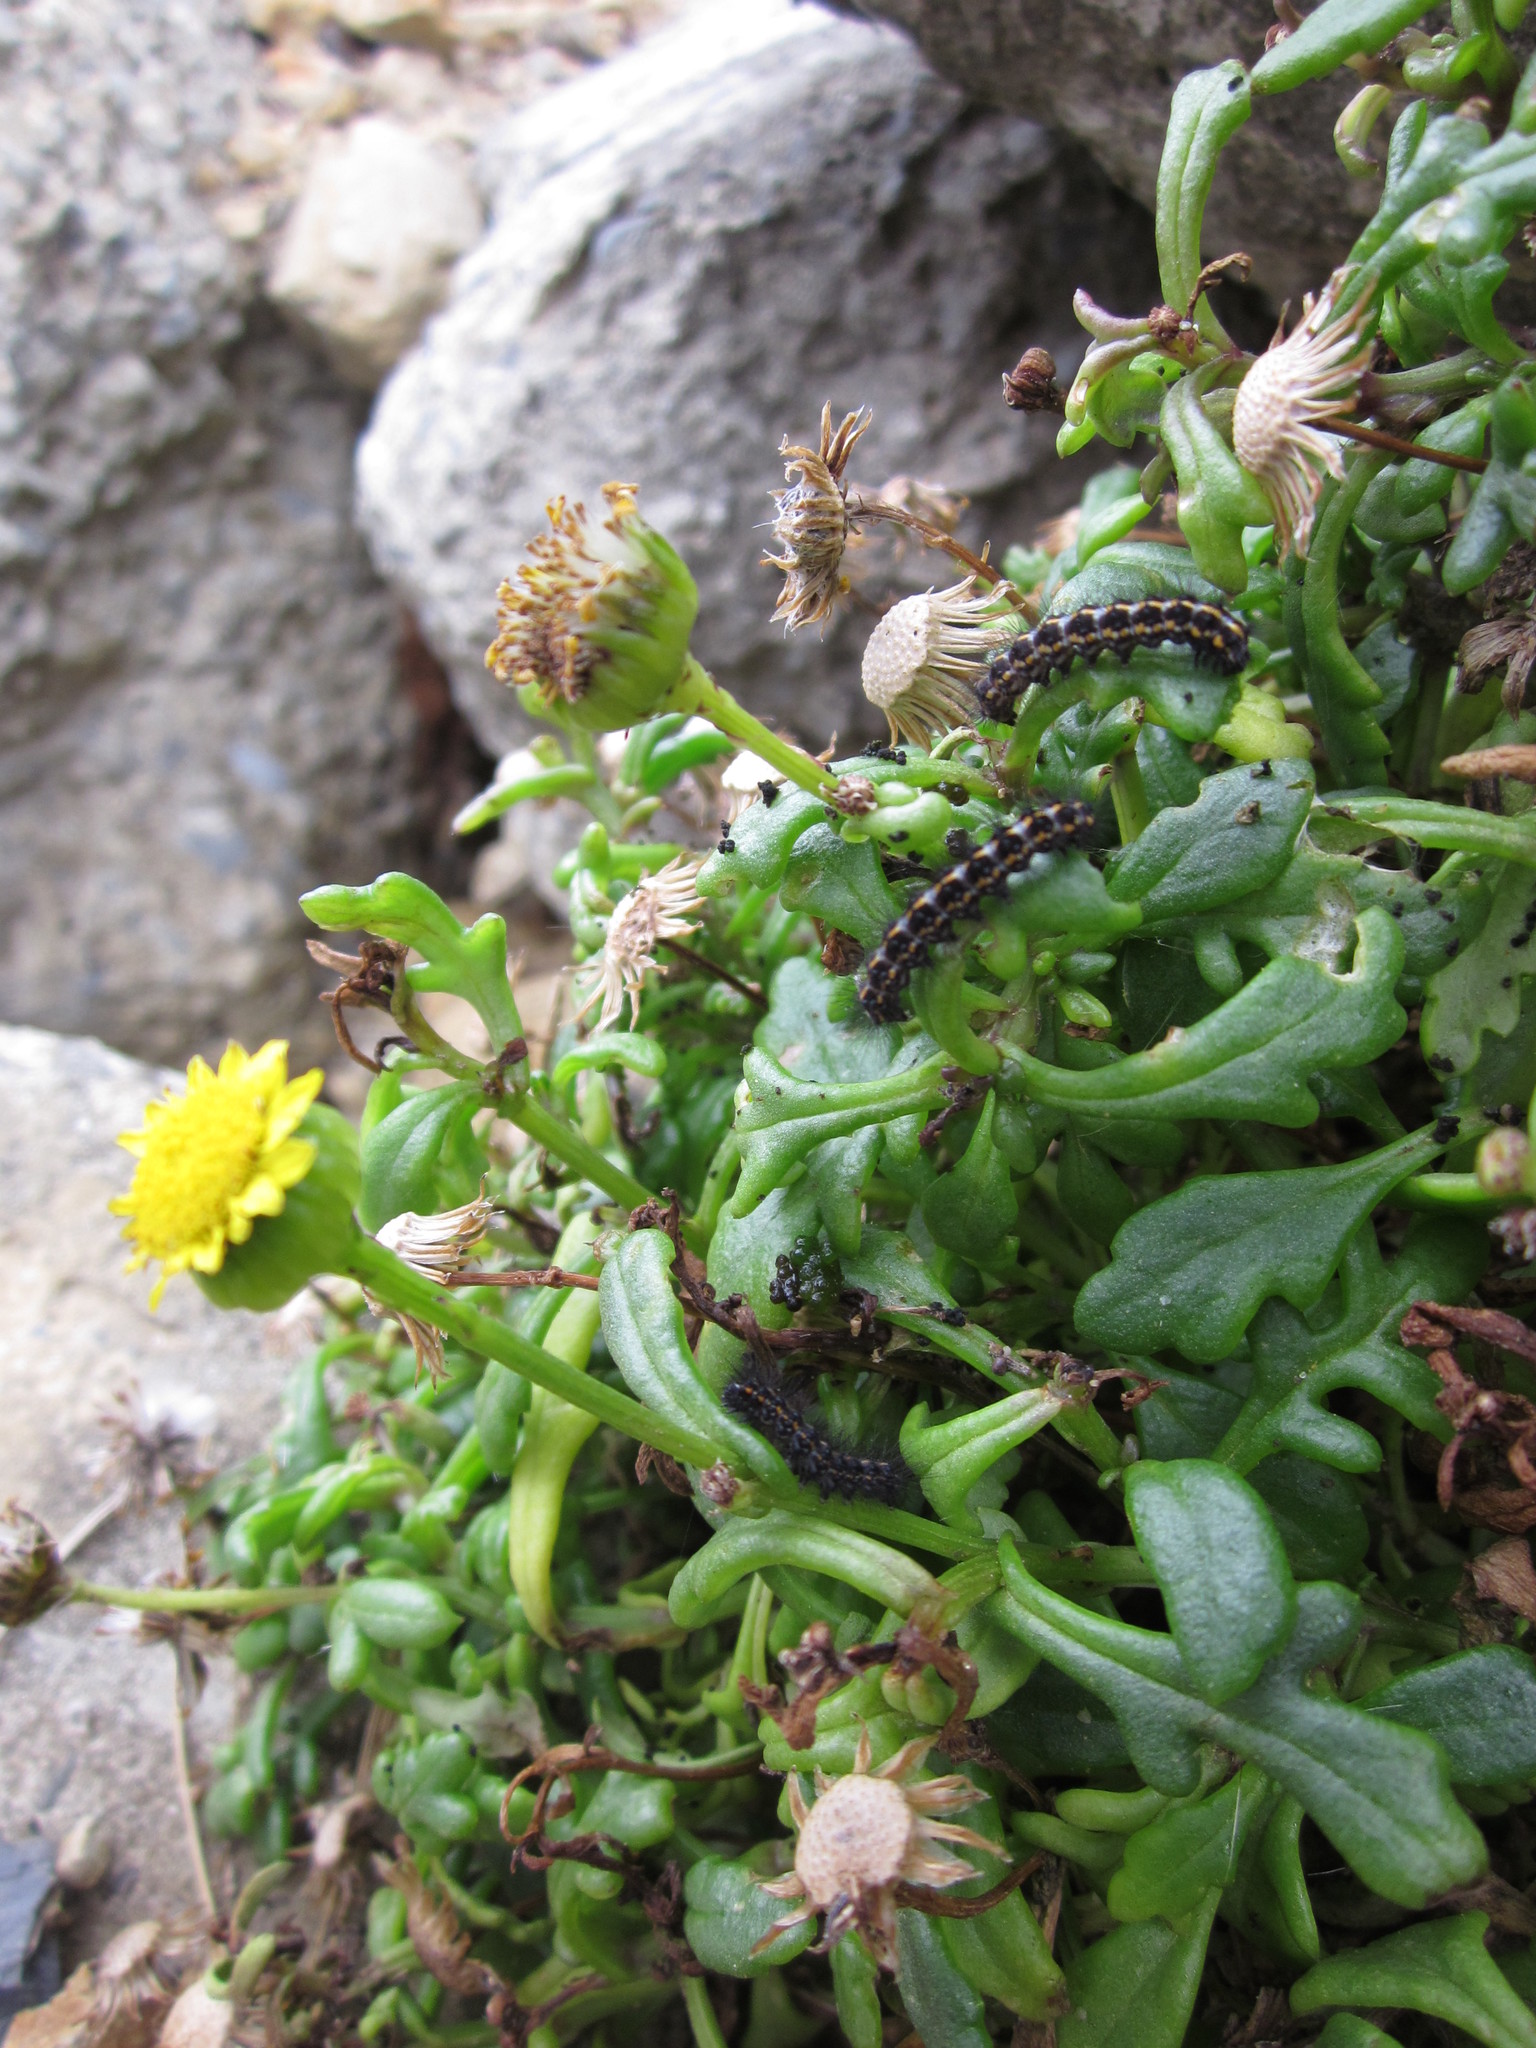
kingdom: Plantae
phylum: Tracheophyta
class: Magnoliopsida
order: Asterales
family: Asteraceae
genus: Senecio
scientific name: Senecio sterquilinus
